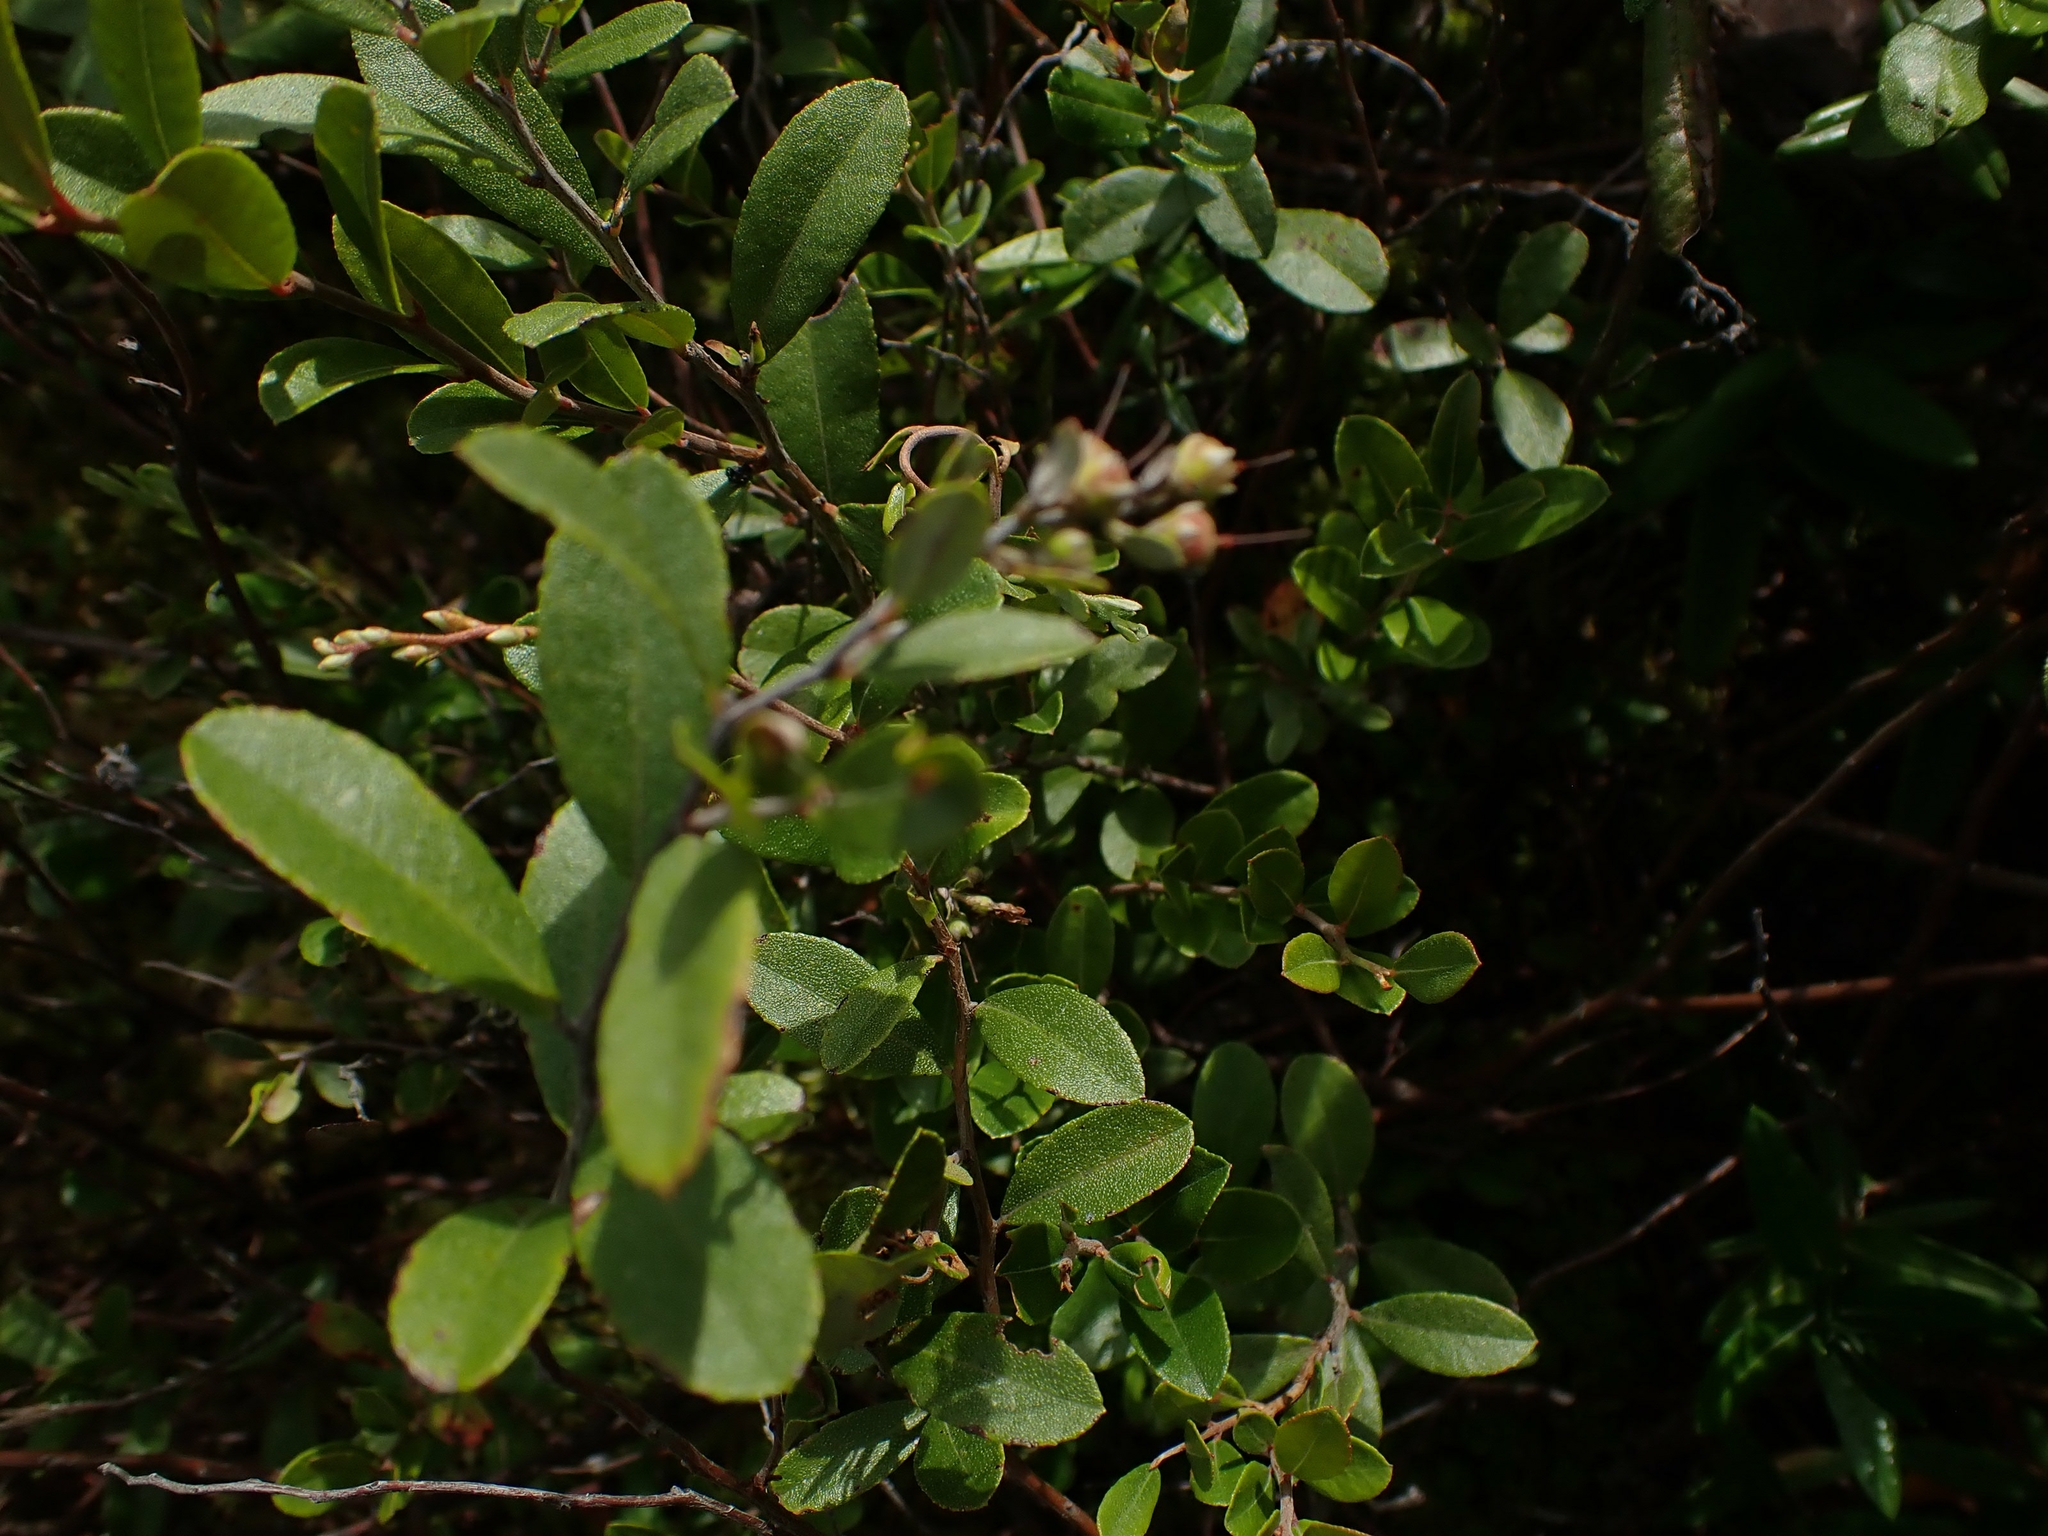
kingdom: Plantae
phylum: Tracheophyta
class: Magnoliopsida
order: Ericales
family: Ericaceae
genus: Chamaedaphne
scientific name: Chamaedaphne calyculata
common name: Leatherleaf
